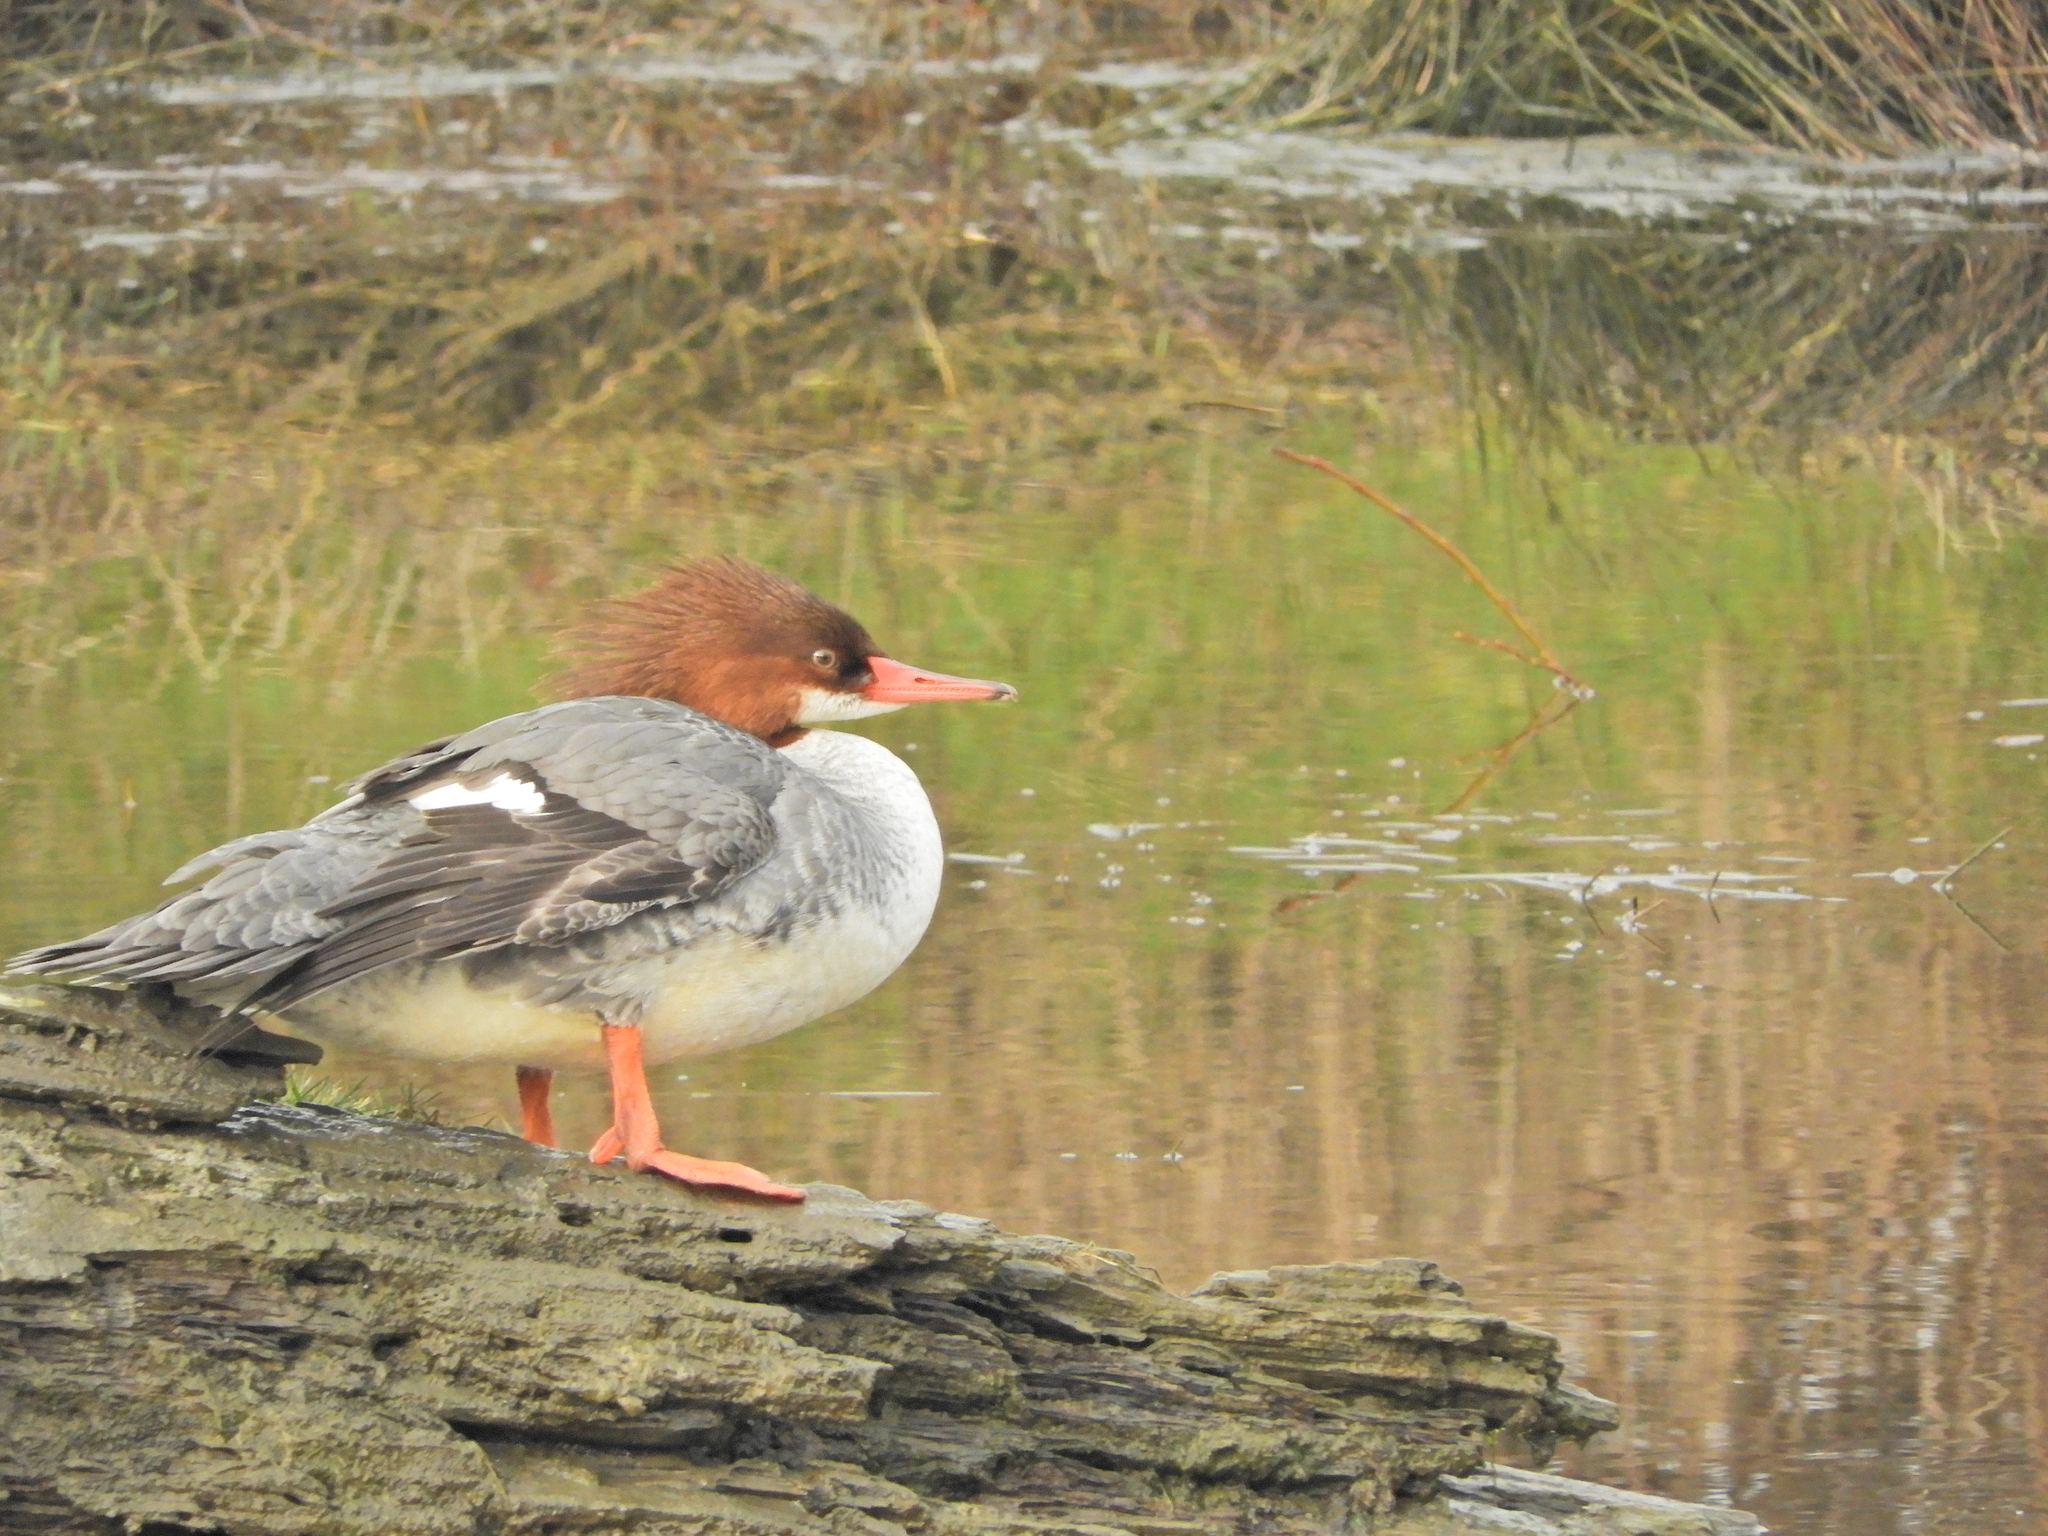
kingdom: Animalia
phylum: Chordata
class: Aves
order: Anseriformes
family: Anatidae
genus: Mergus
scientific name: Mergus merganser
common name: Common merganser
